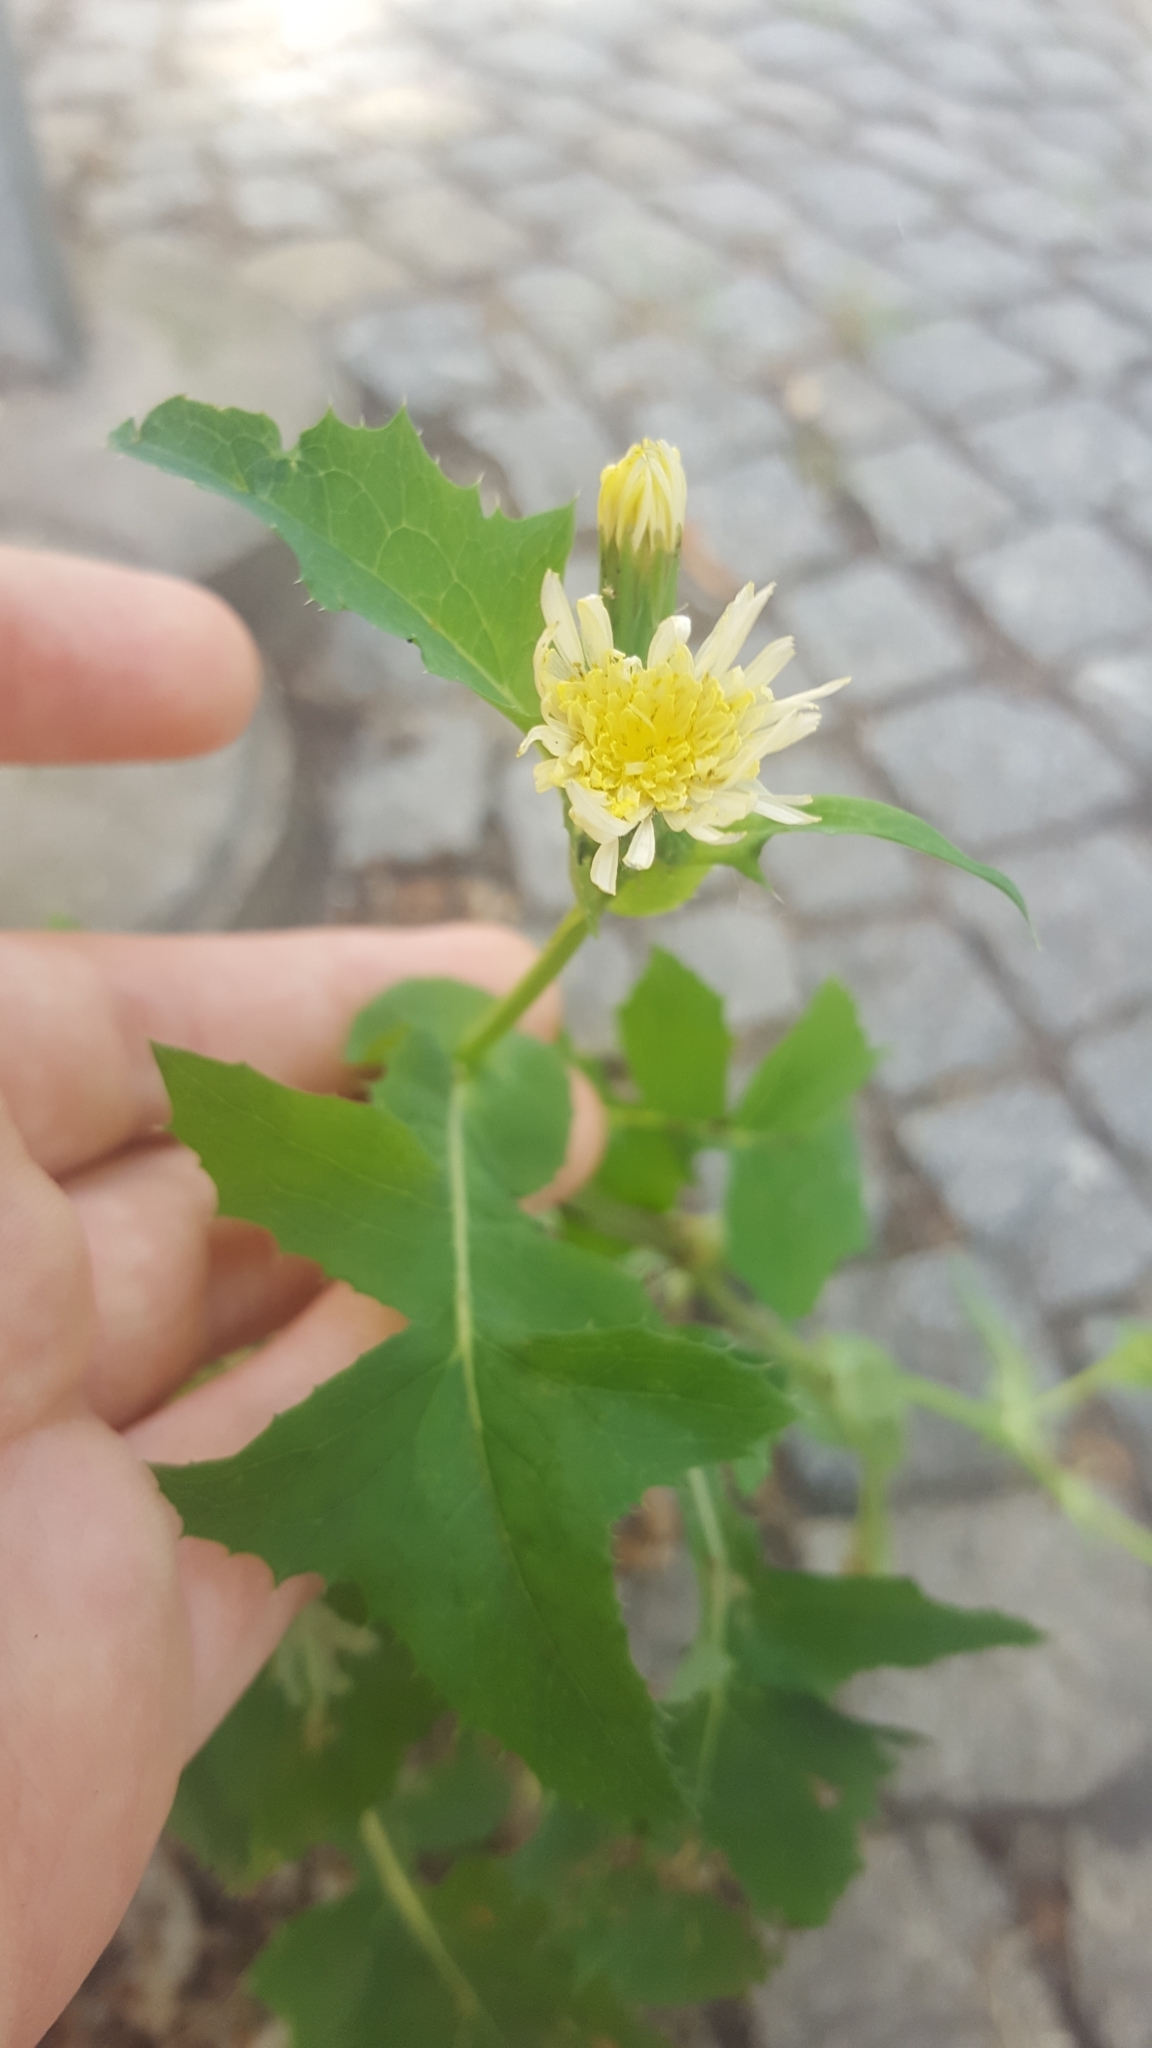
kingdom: Plantae
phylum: Tracheophyta
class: Magnoliopsida
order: Asterales
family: Asteraceae
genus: Sonchus
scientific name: Sonchus oleraceus
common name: Common sowthistle
